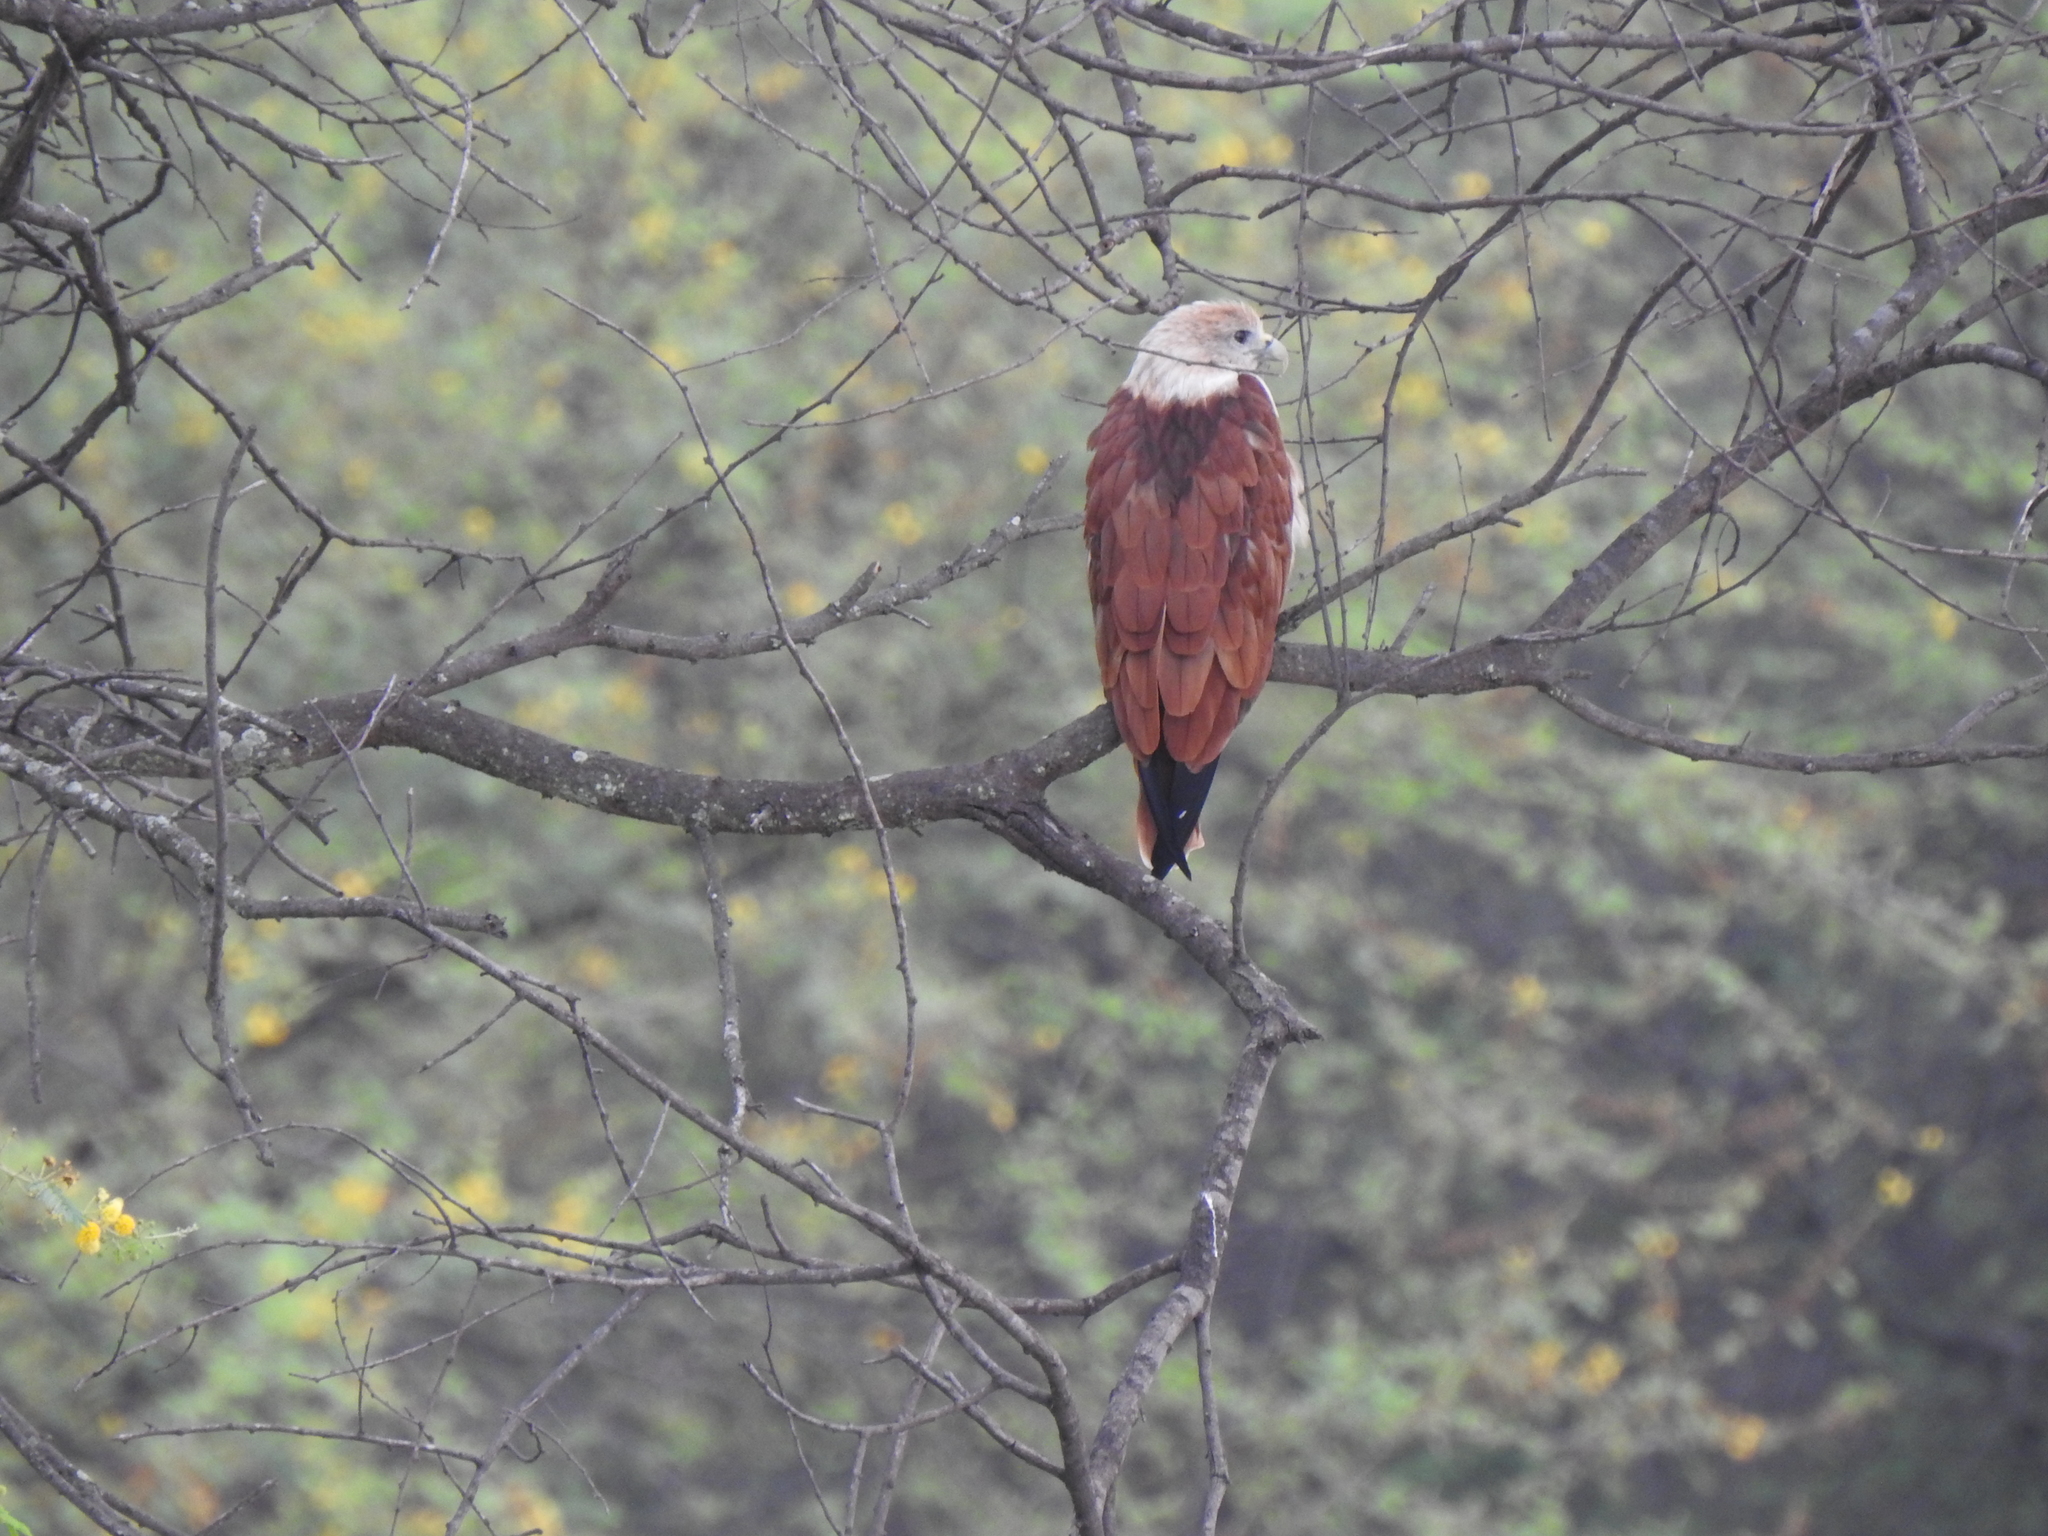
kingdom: Animalia
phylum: Chordata
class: Aves
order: Accipitriformes
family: Accipitridae
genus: Haliastur
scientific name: Haliastur indus
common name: Brahminy kite
